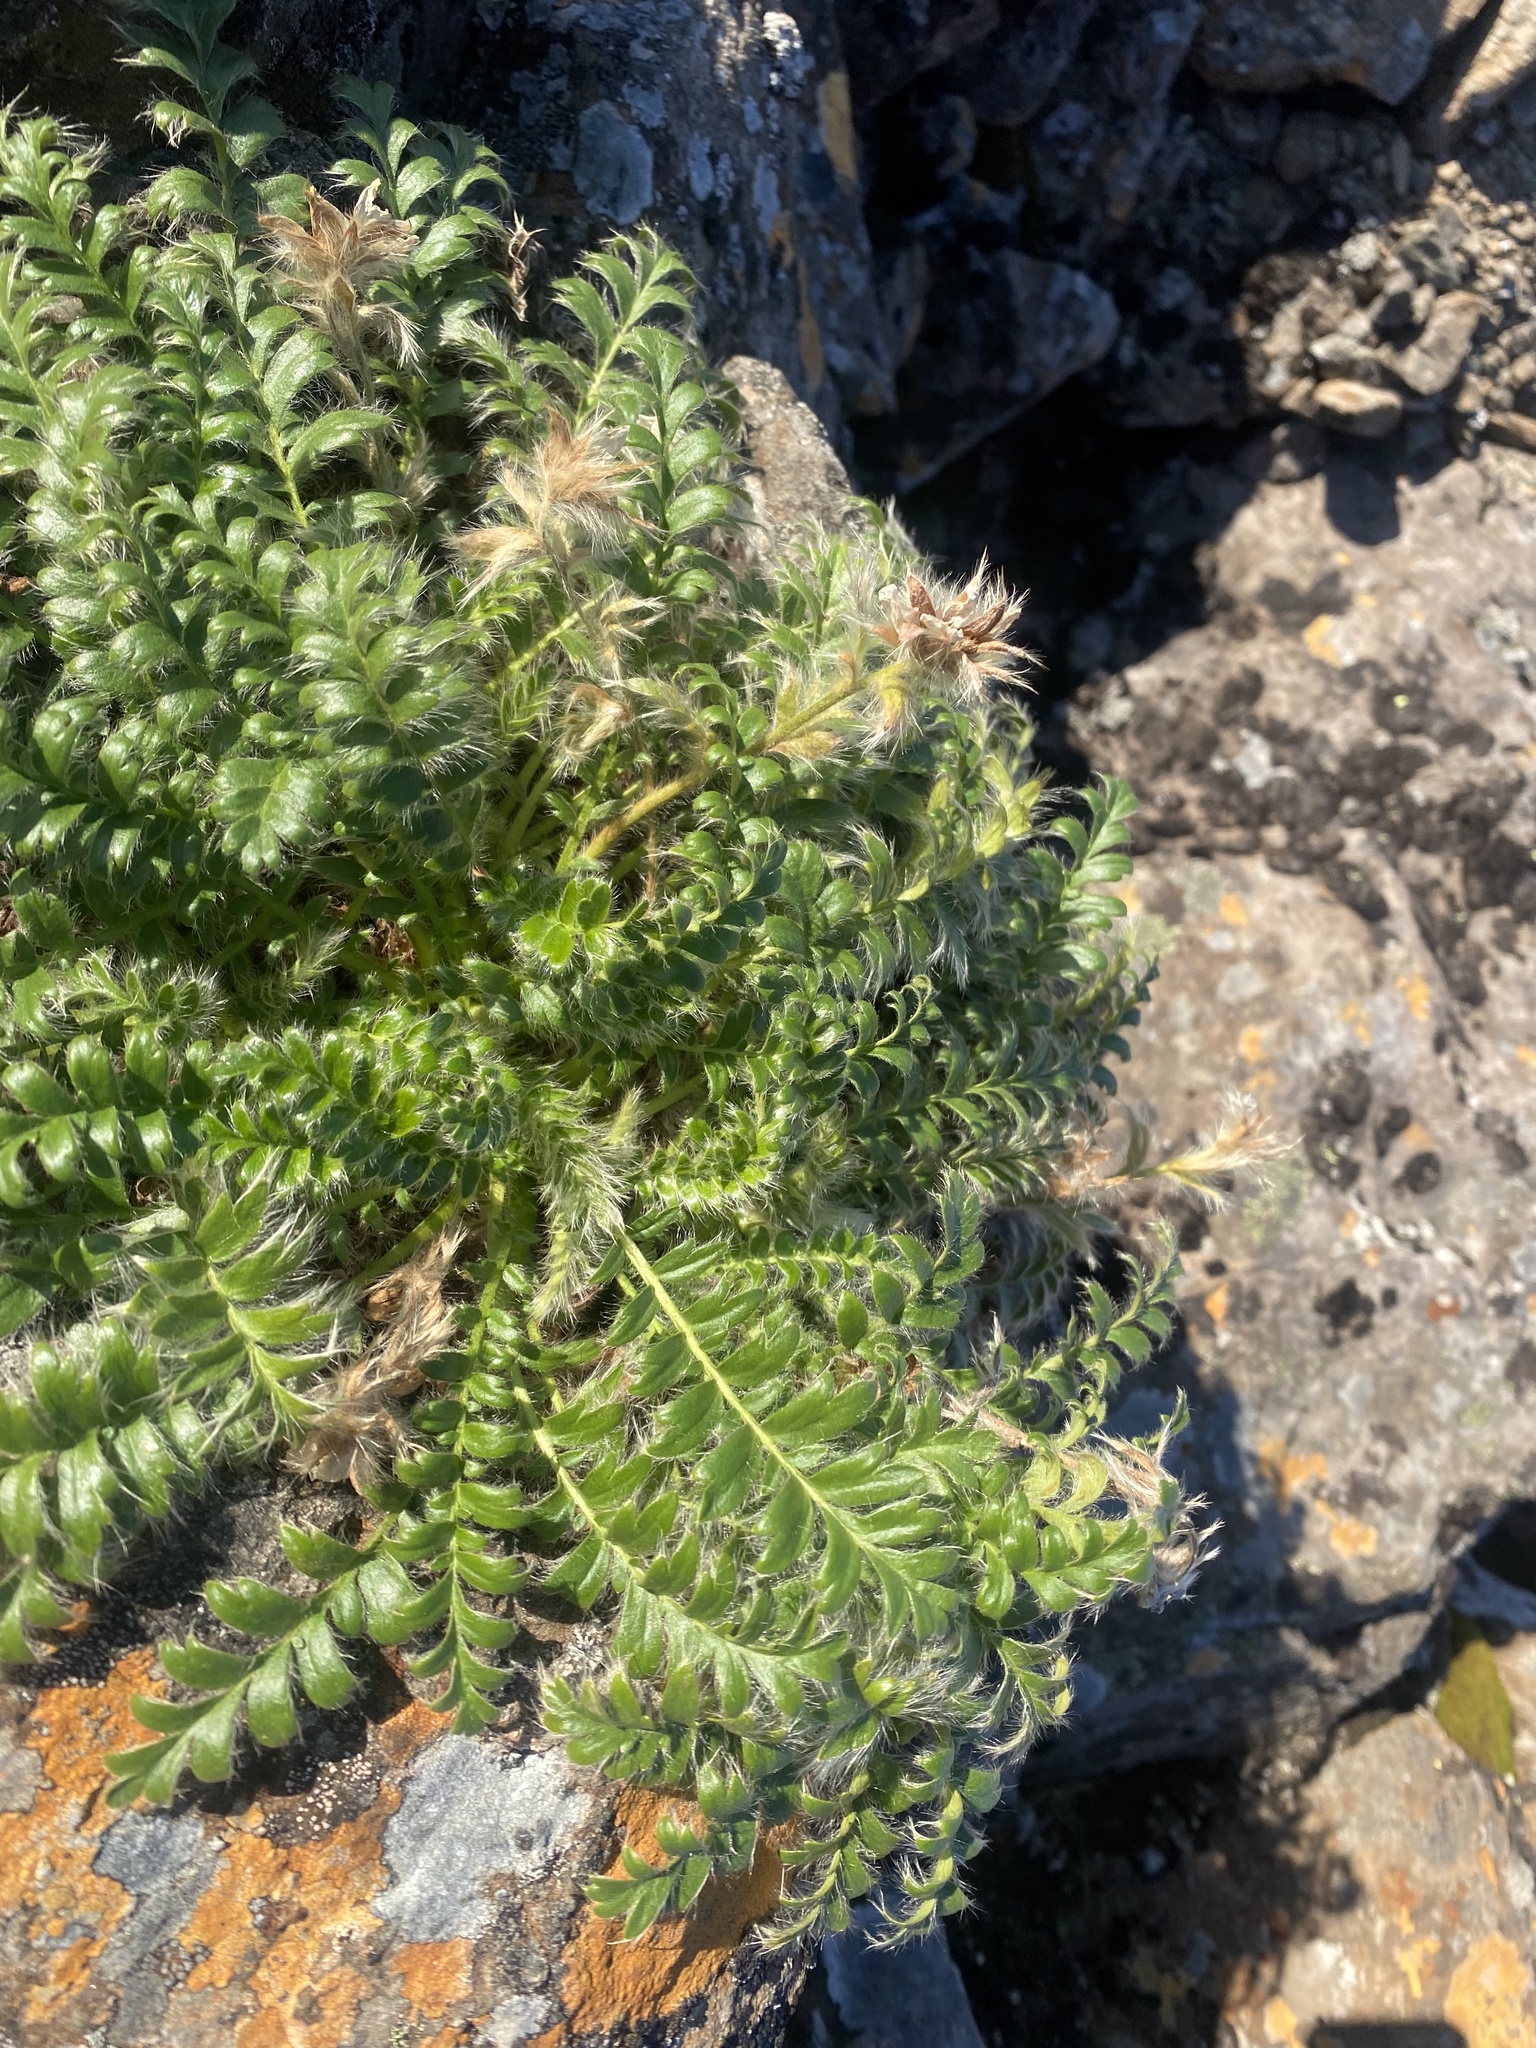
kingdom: Plantae
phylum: Tracheophyta
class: Magnoliopsida
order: Rosales
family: Rosaceae
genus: Geum
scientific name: Geum glaciale
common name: Glacier avens
